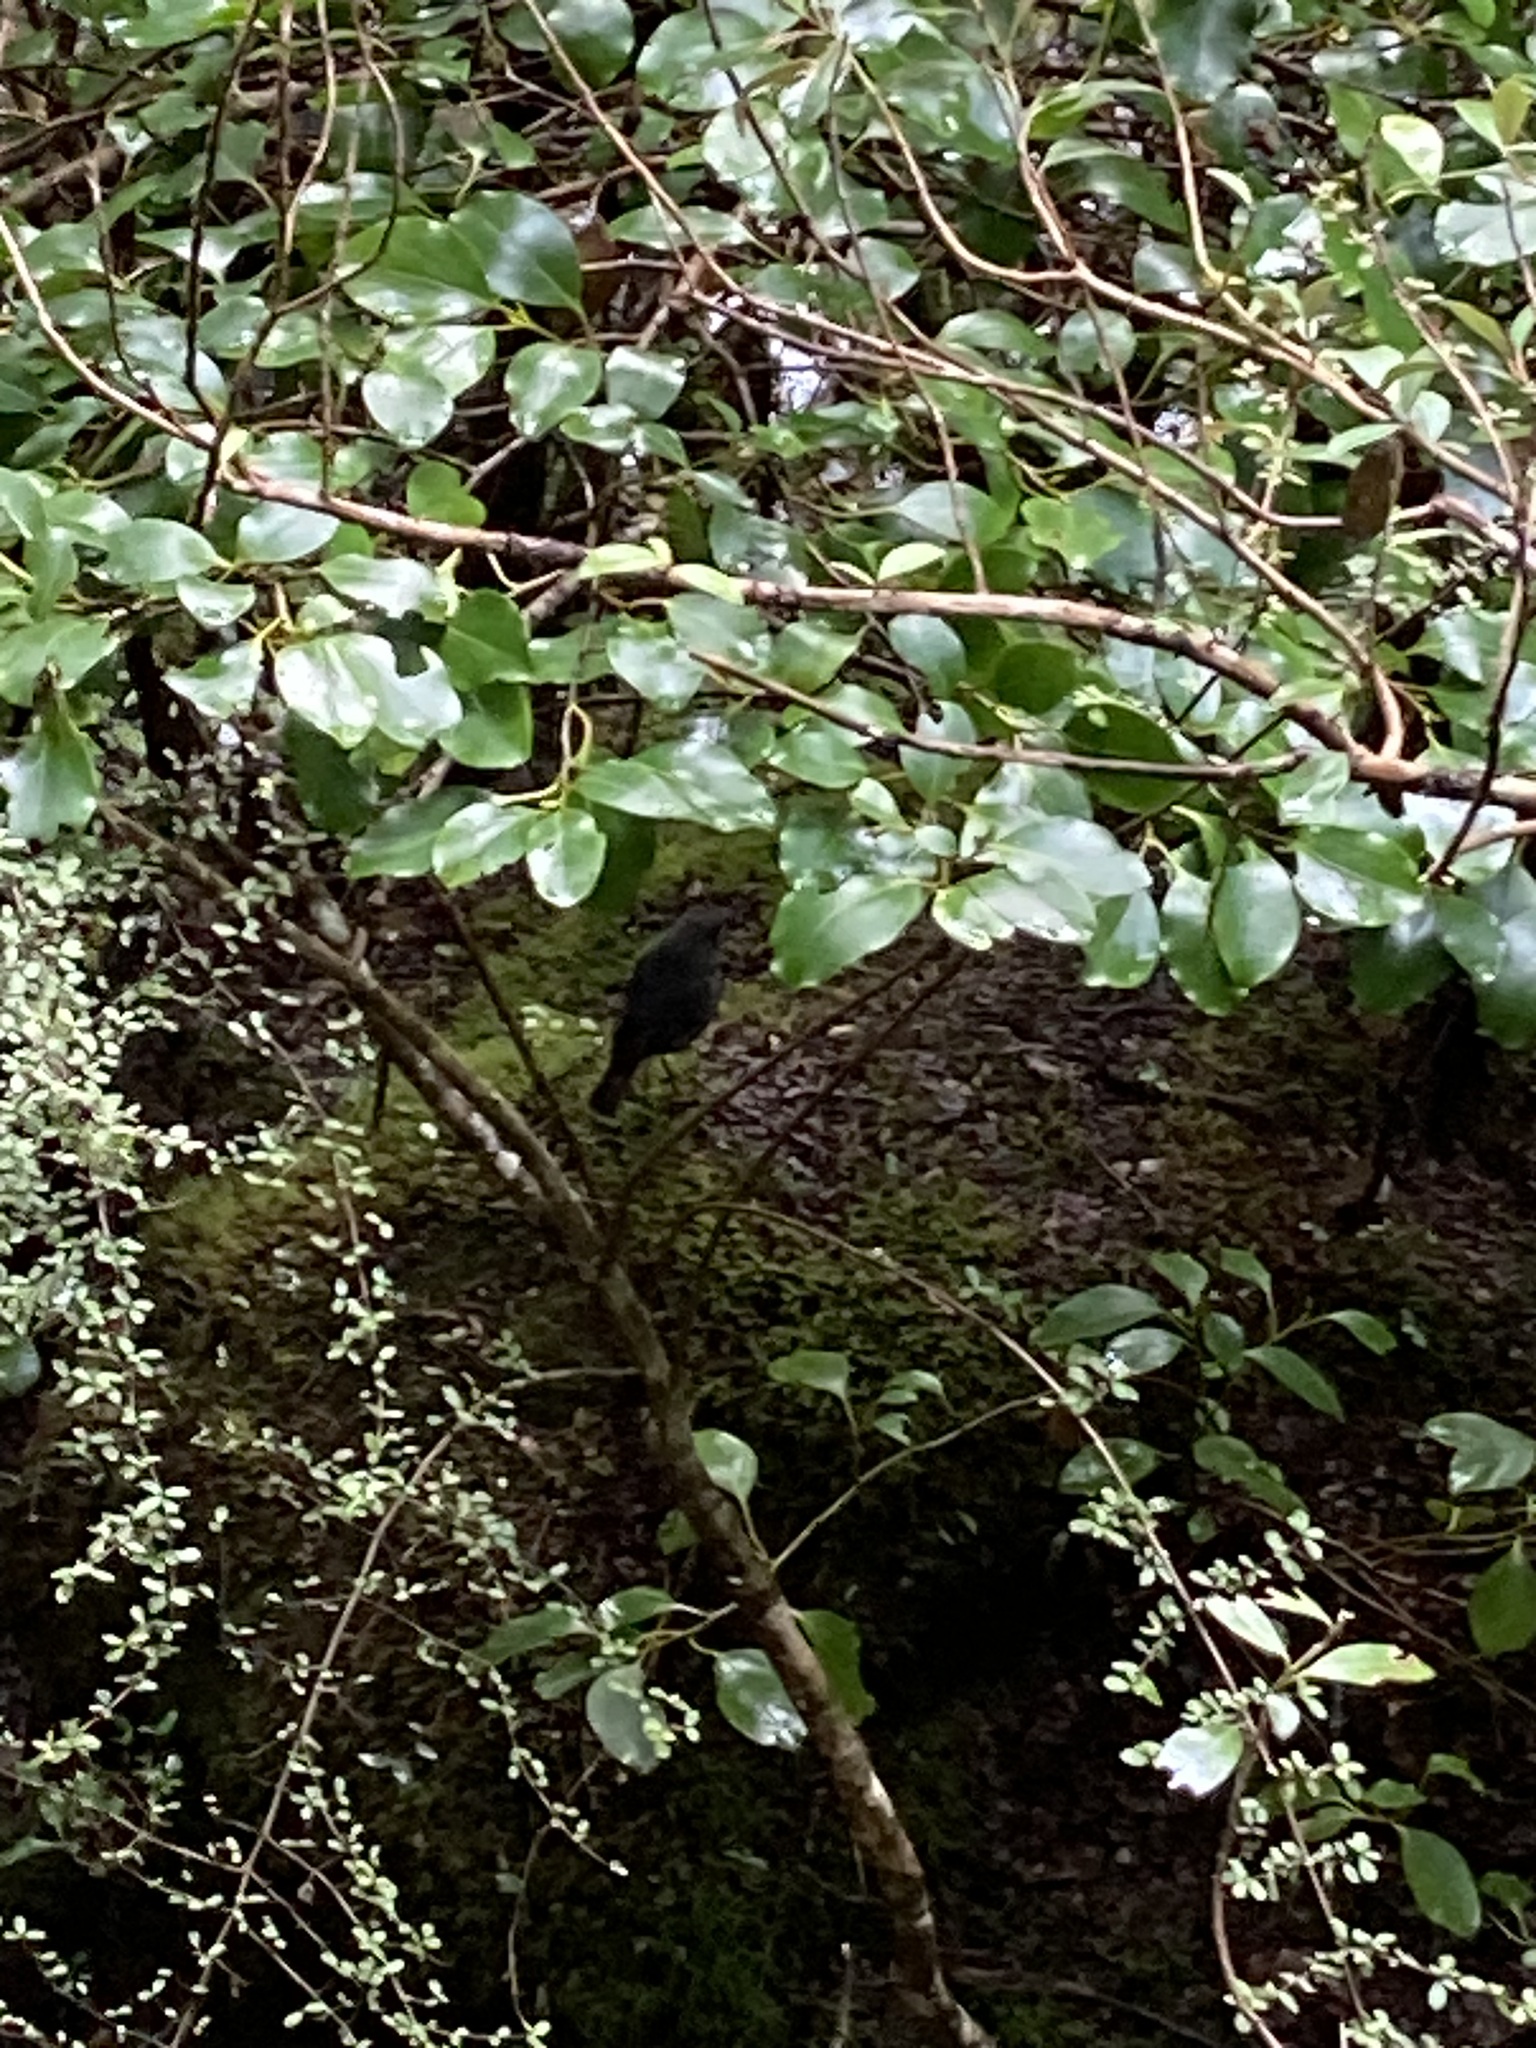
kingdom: Animalia
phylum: Chordata
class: Aves
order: Passeriformes
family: Petroicidae
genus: Petroica
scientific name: Petroica australis
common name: New zealand robin
